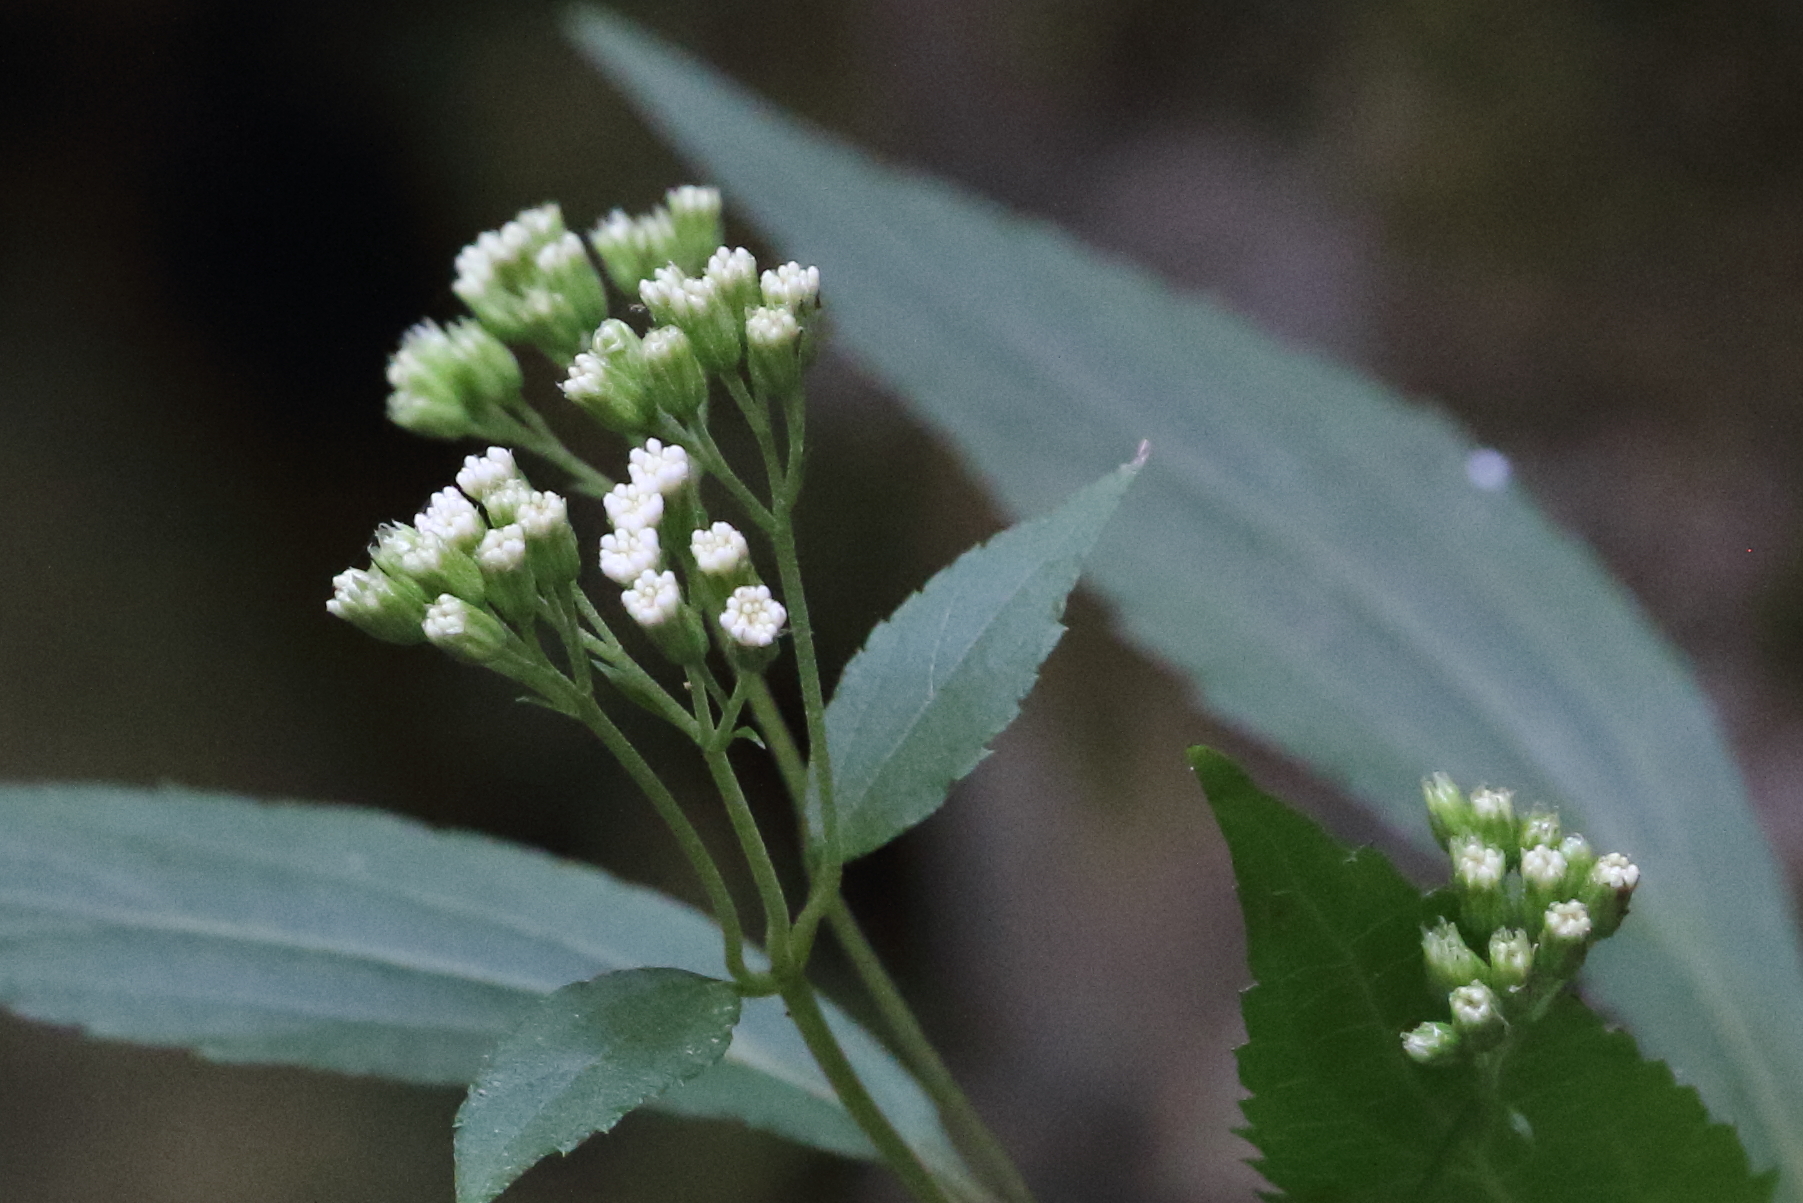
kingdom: Plantae
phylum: Tracheophyta
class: Magnoliopsida
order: Asterales
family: Asteraceae
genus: Ageratina
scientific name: Ageratina riparia
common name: Creeping croftonweed
